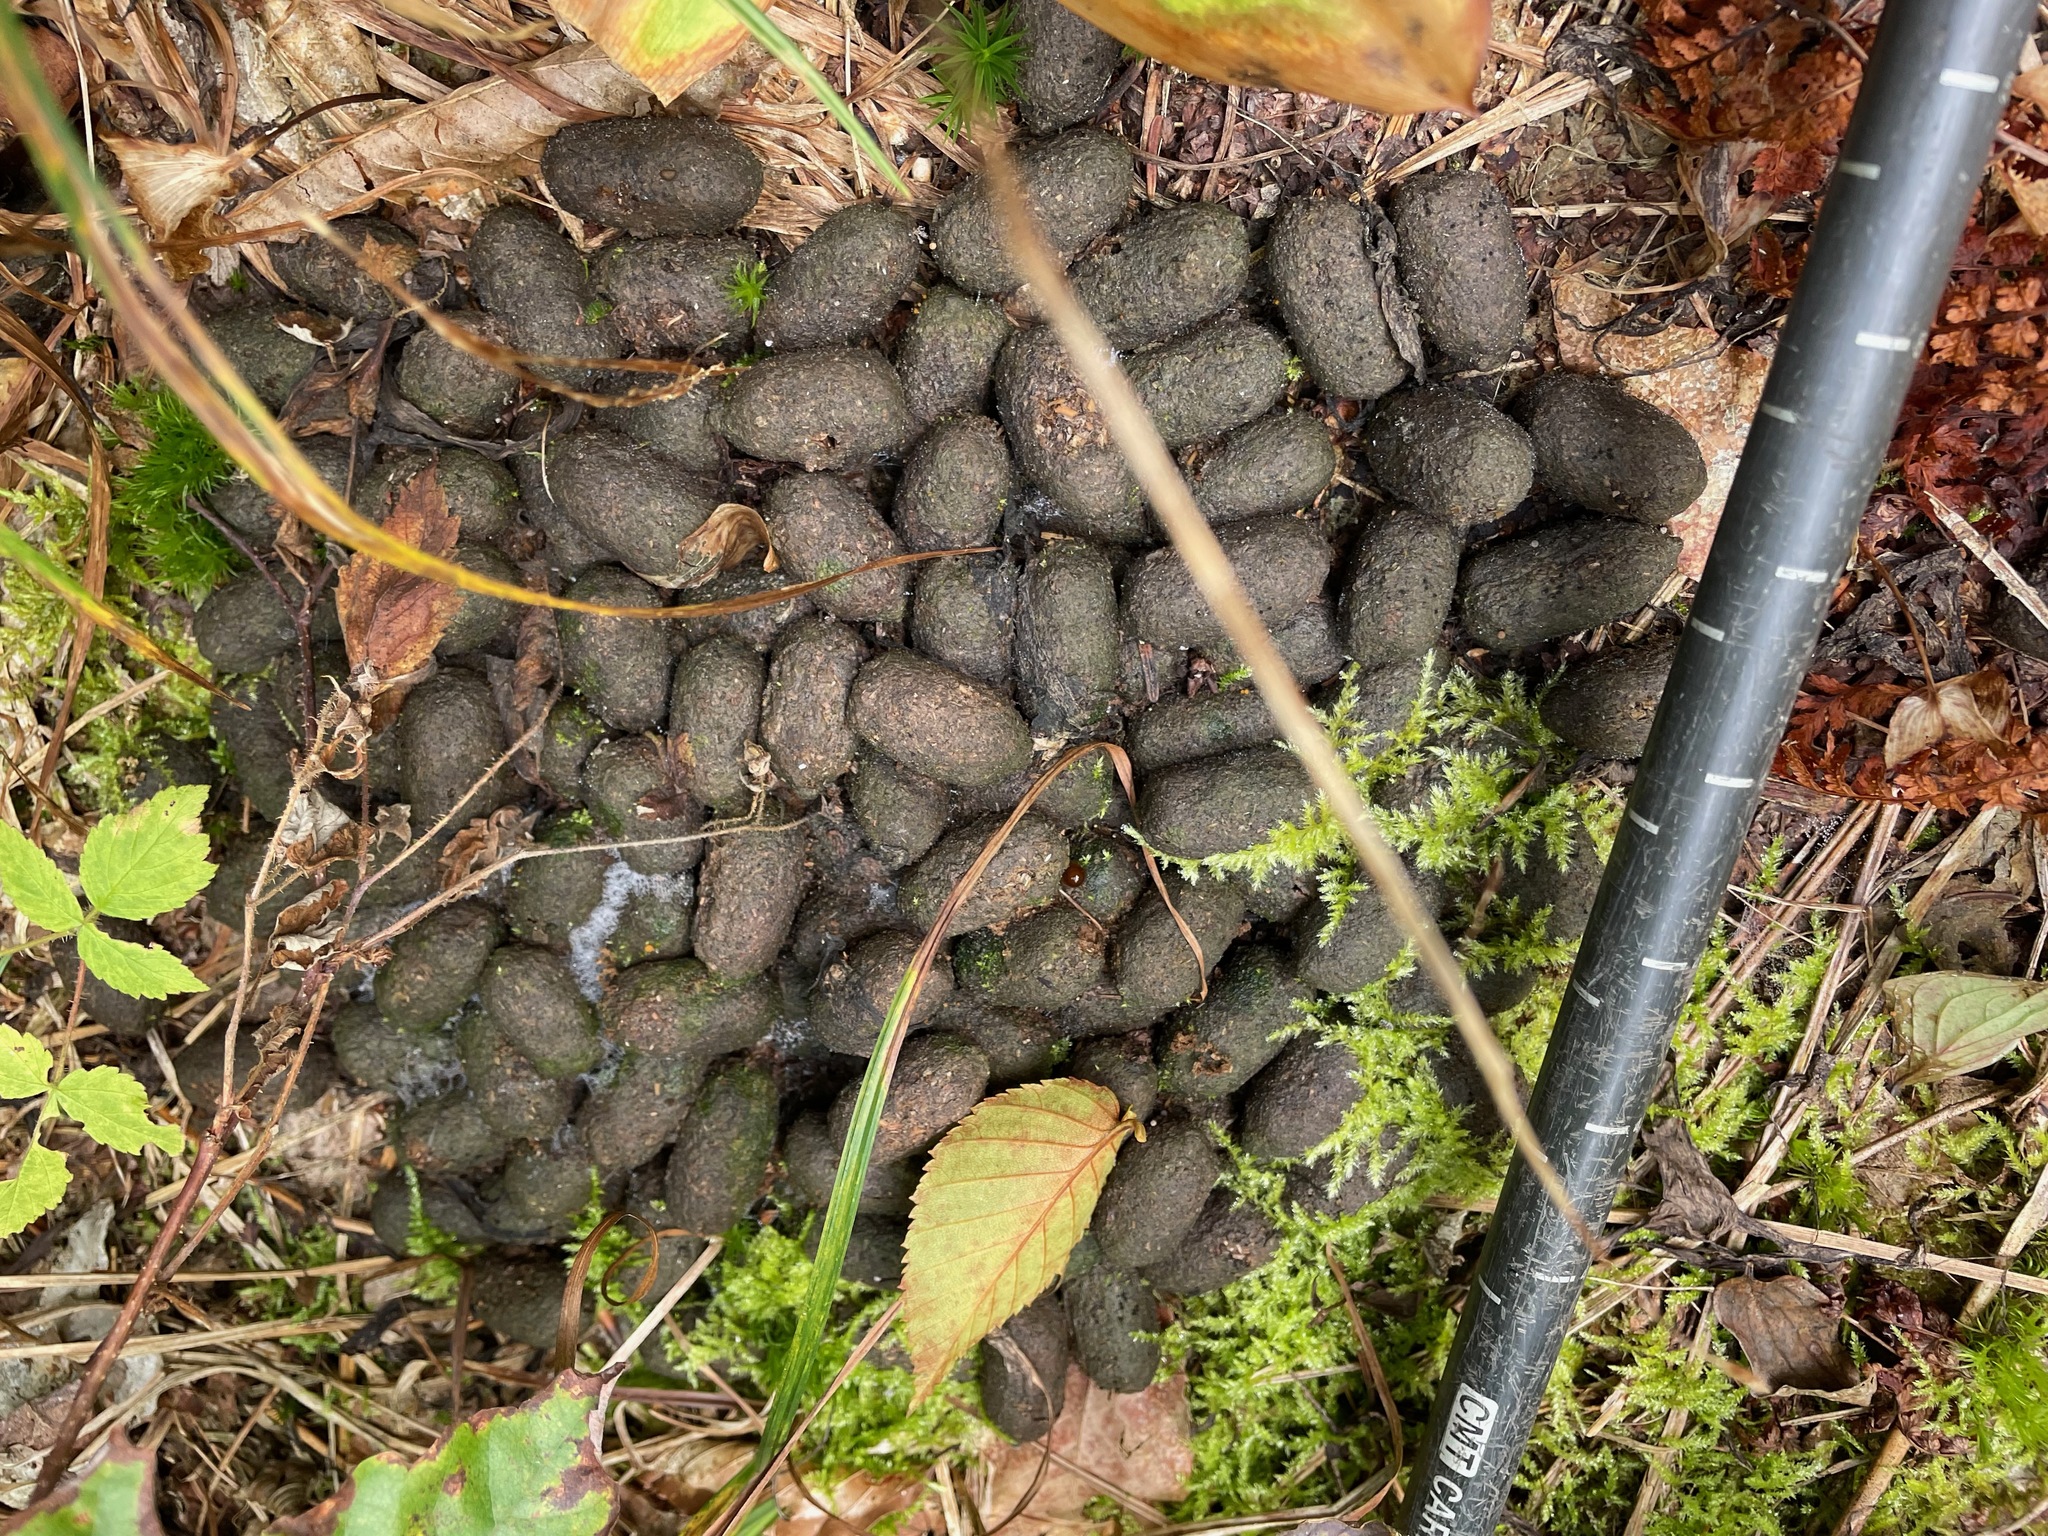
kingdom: Animalia
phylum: Chordata
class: Mammalia
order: Artiodactyla
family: Cervidae
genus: Alces
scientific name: Alces alces
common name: Moose
